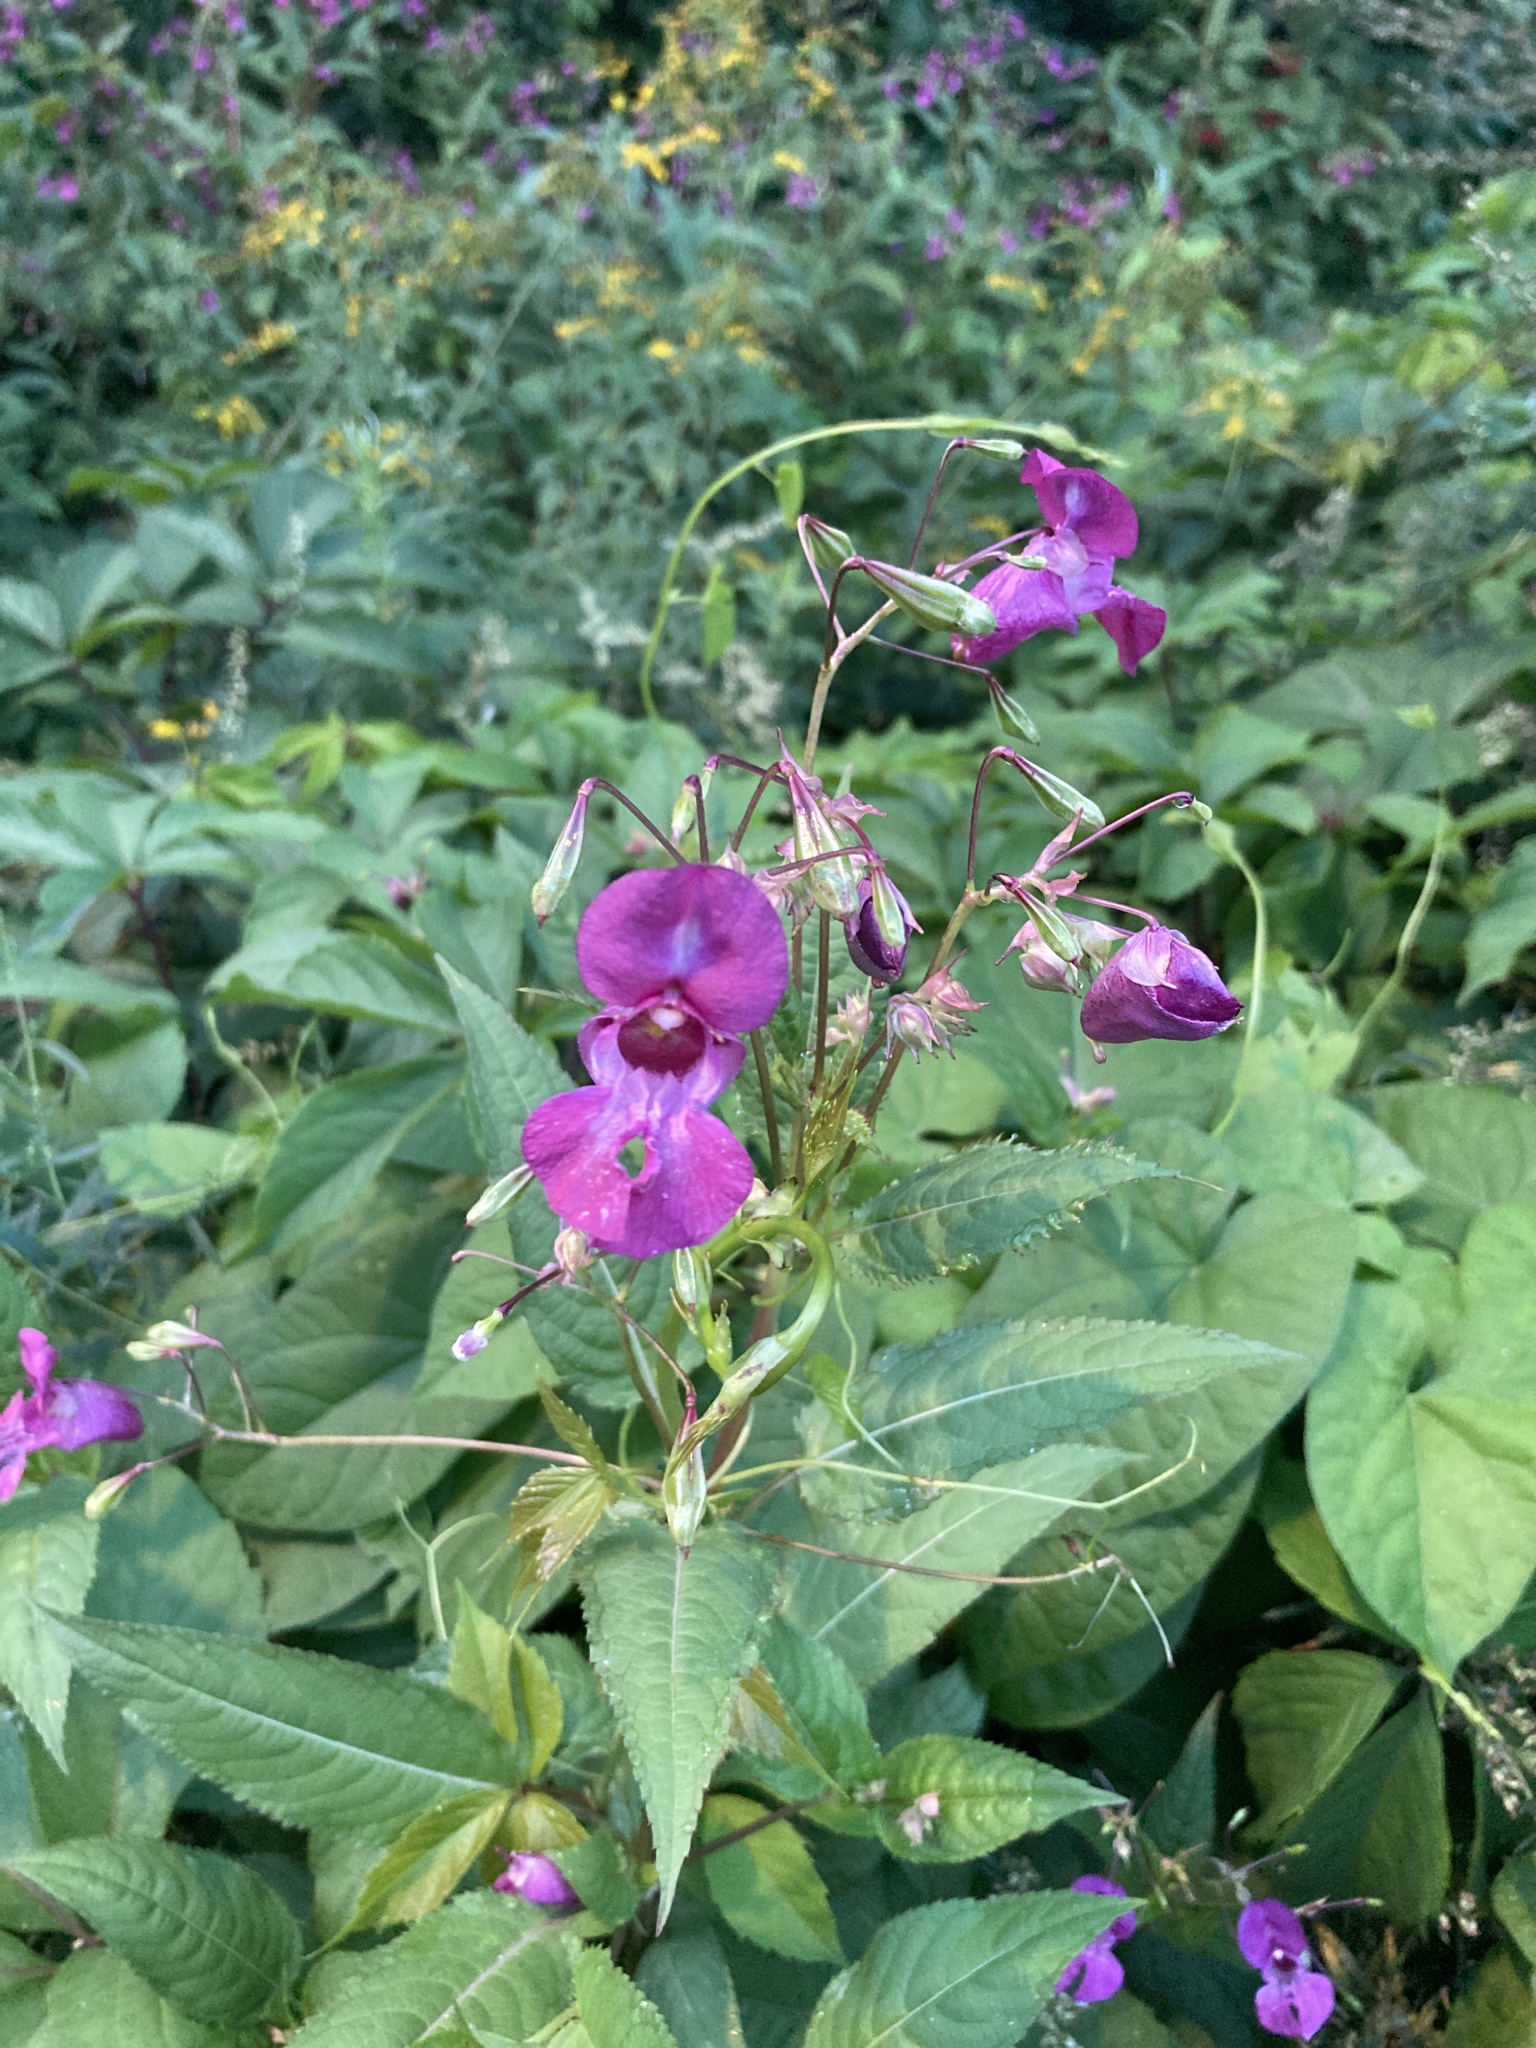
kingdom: Plantae
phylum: Tracheophyta
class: Magnoliopsida
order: Ericales
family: Balsaminaceae
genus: Impatiens
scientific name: Impatiens glandulifera
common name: Himalayan balsam
